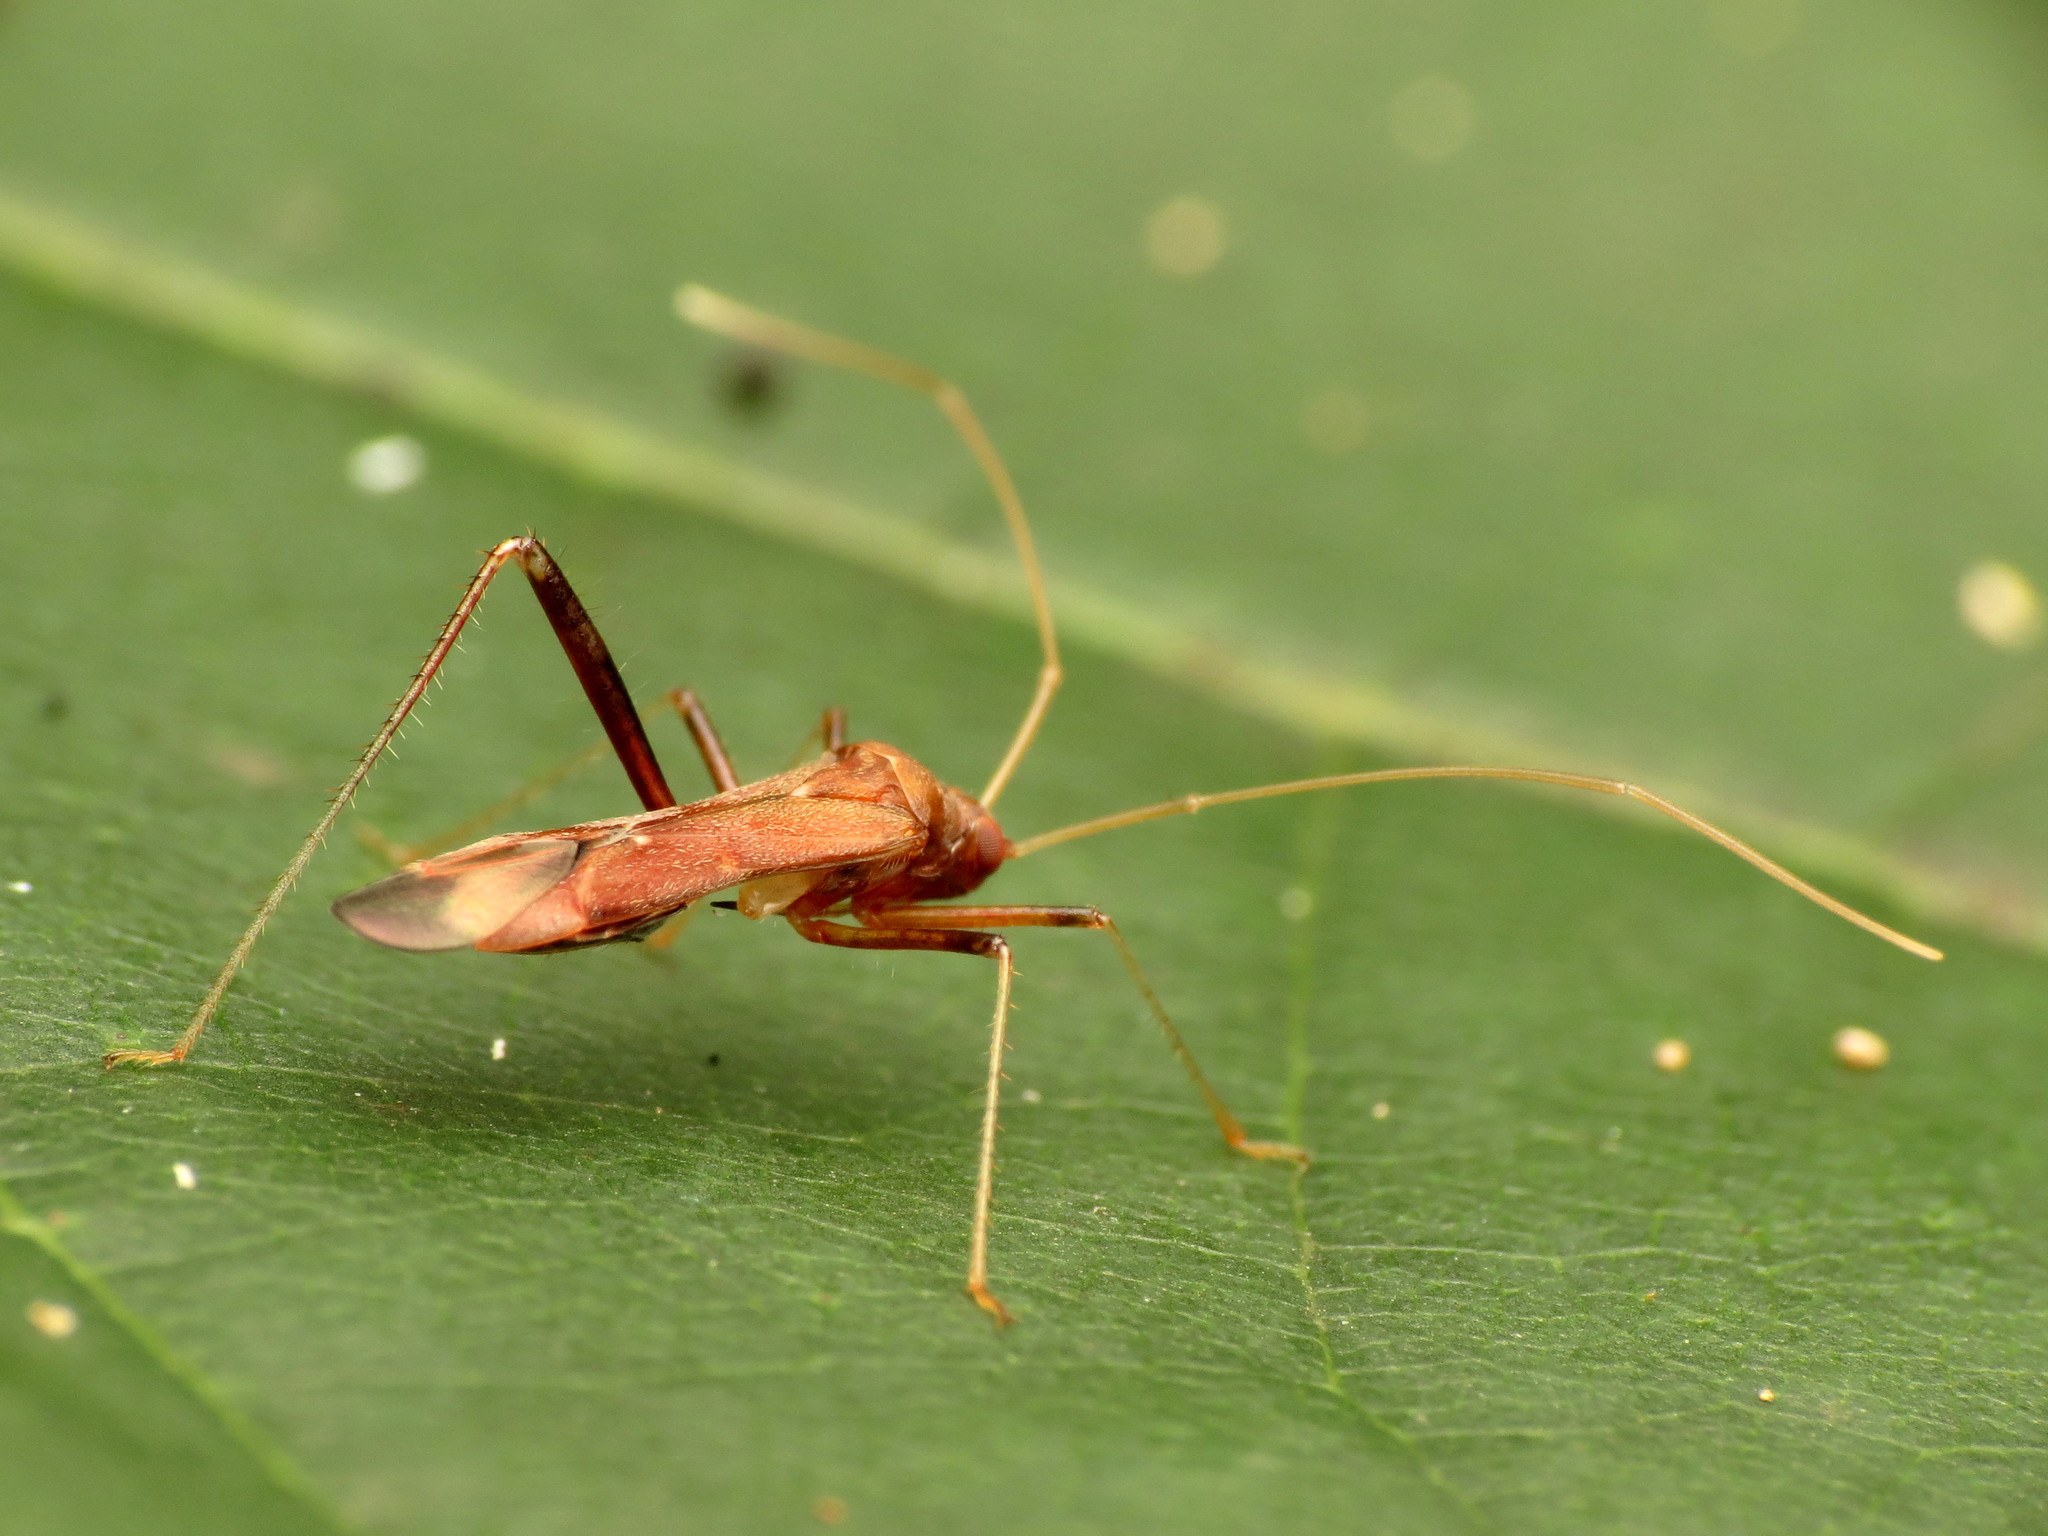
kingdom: Animalia
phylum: Arthropoda
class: Insecta
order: Hemiptera
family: Miridae
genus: Paraxenetus
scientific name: Paraxenetus guttulatus
